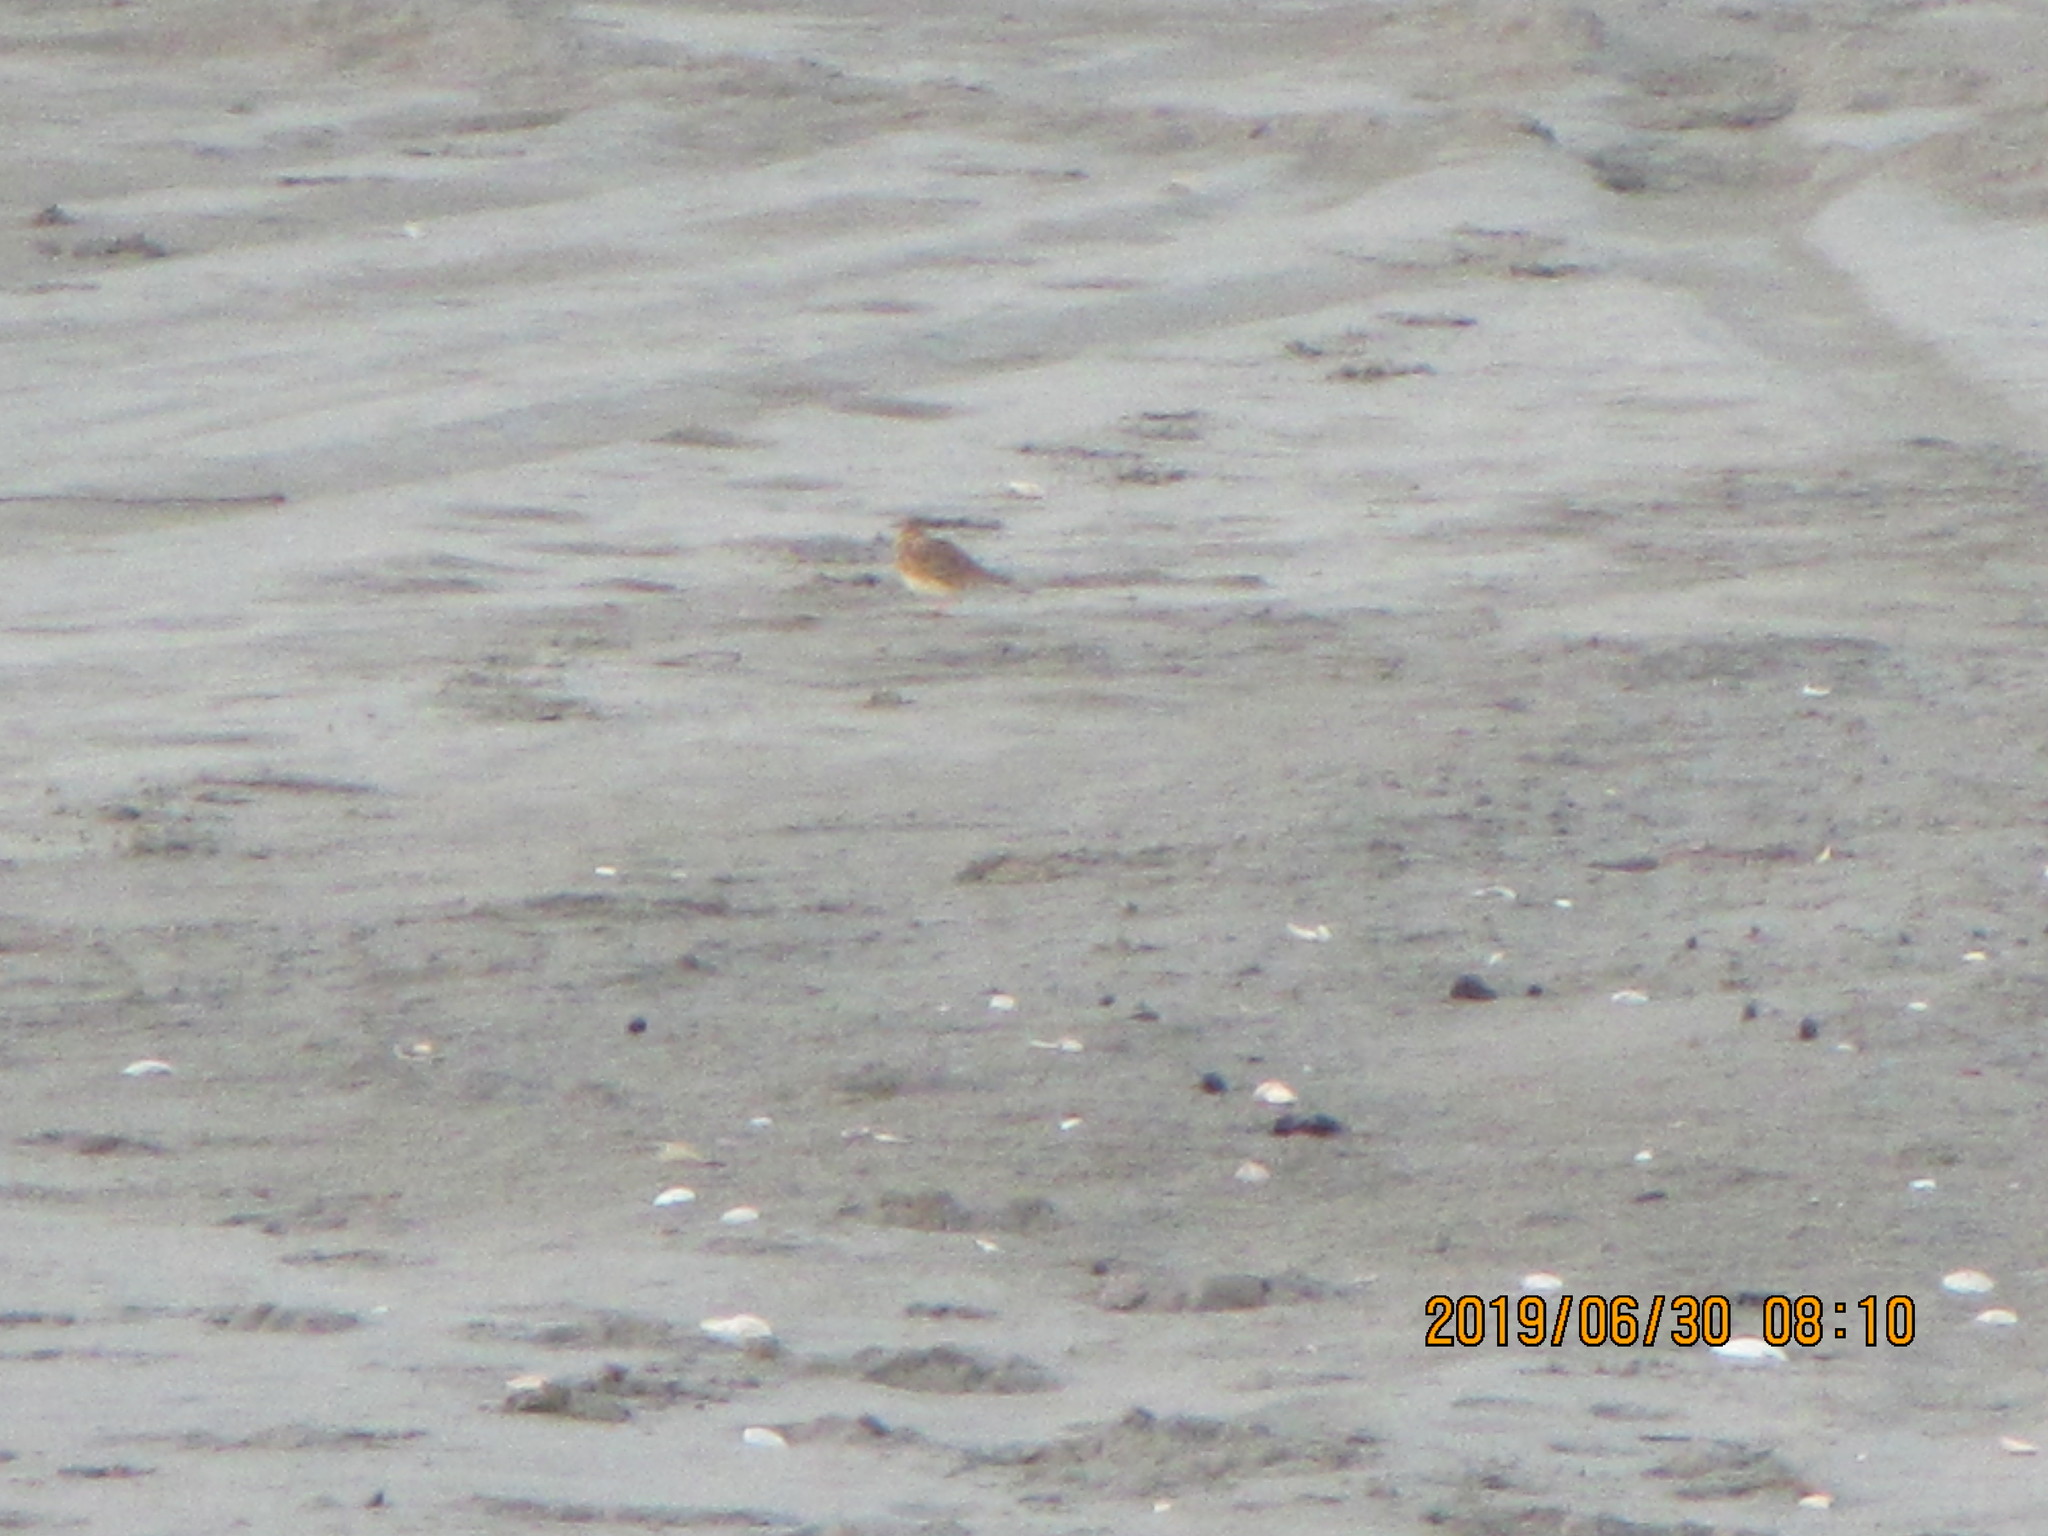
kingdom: Animalia
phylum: Chordata
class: Aves
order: Passeriformes
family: Motacillidae
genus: Anthus
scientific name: Anthus novaeseelandiae
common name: New zealand pipit
